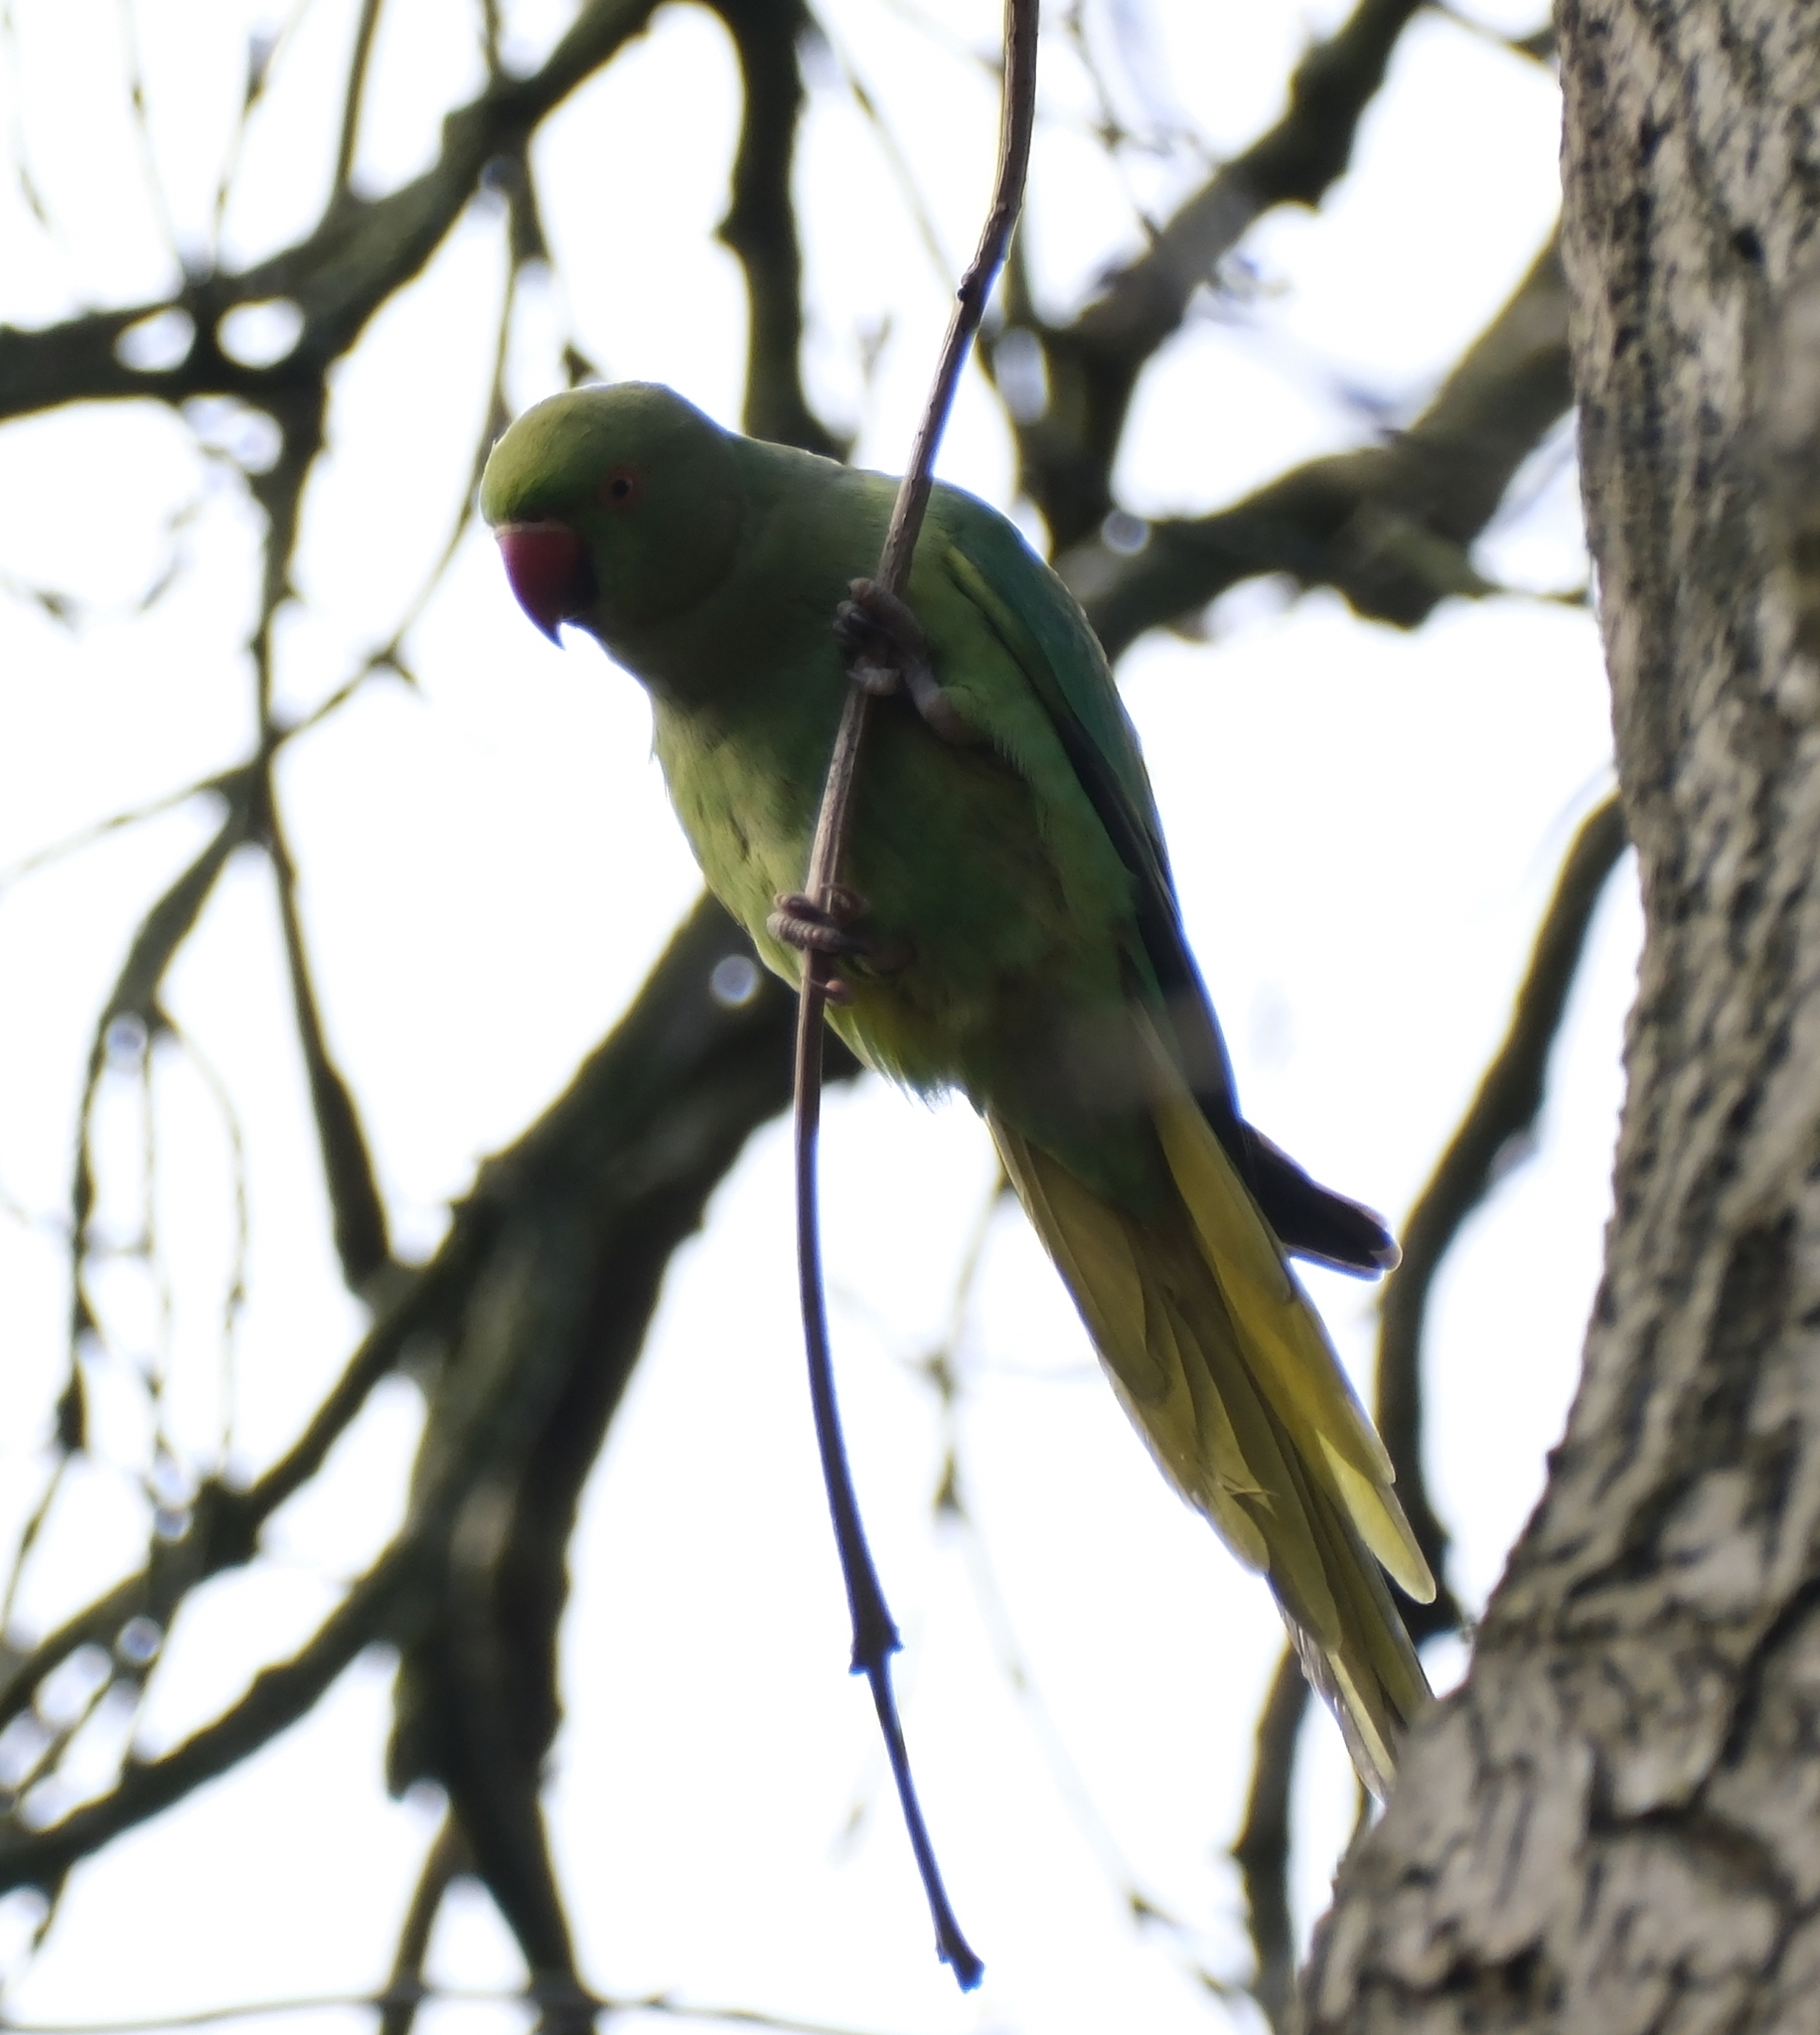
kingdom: Animalia
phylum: Chordata
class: Aves
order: Psittaciformes
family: Psittacidae
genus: Psittacula
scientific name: Psittacula krameri
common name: Rose-ringed parakeet
